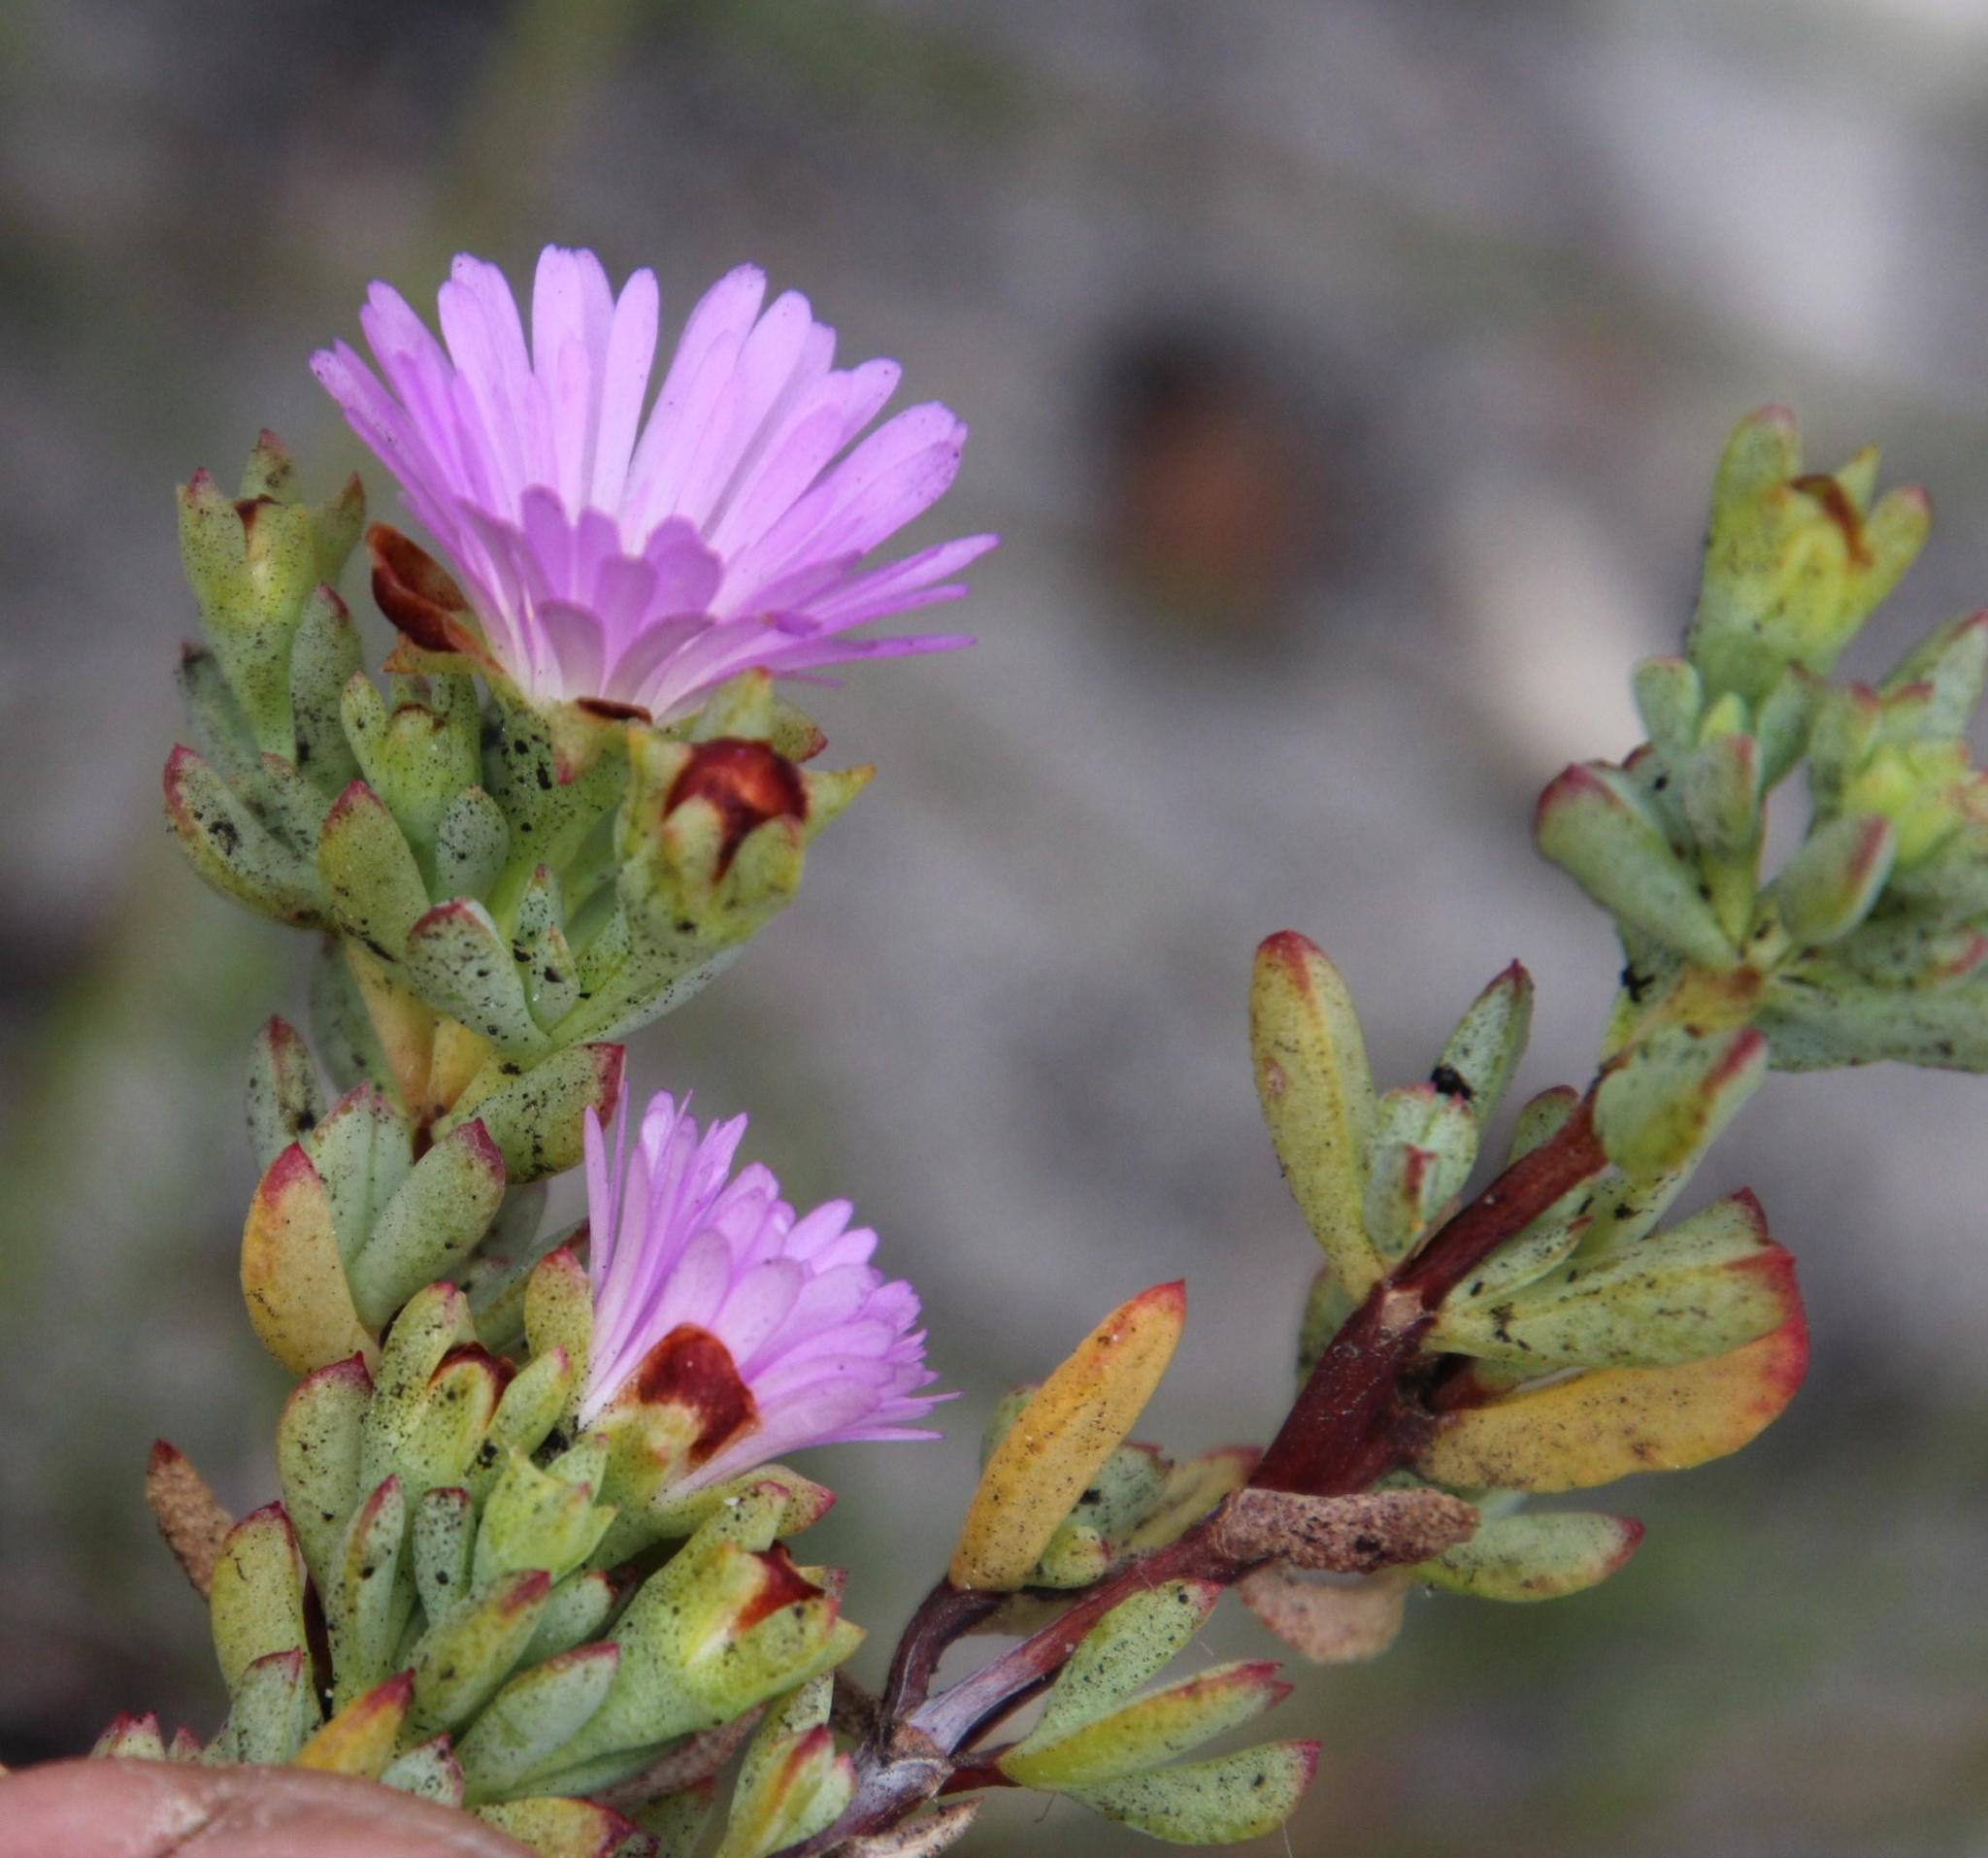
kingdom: Plantae
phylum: Tracheophyta
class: Magnoliopsida
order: Caryophyllales
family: Aizoaceae
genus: Lampranthus
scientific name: Lampranthus glomeratus
